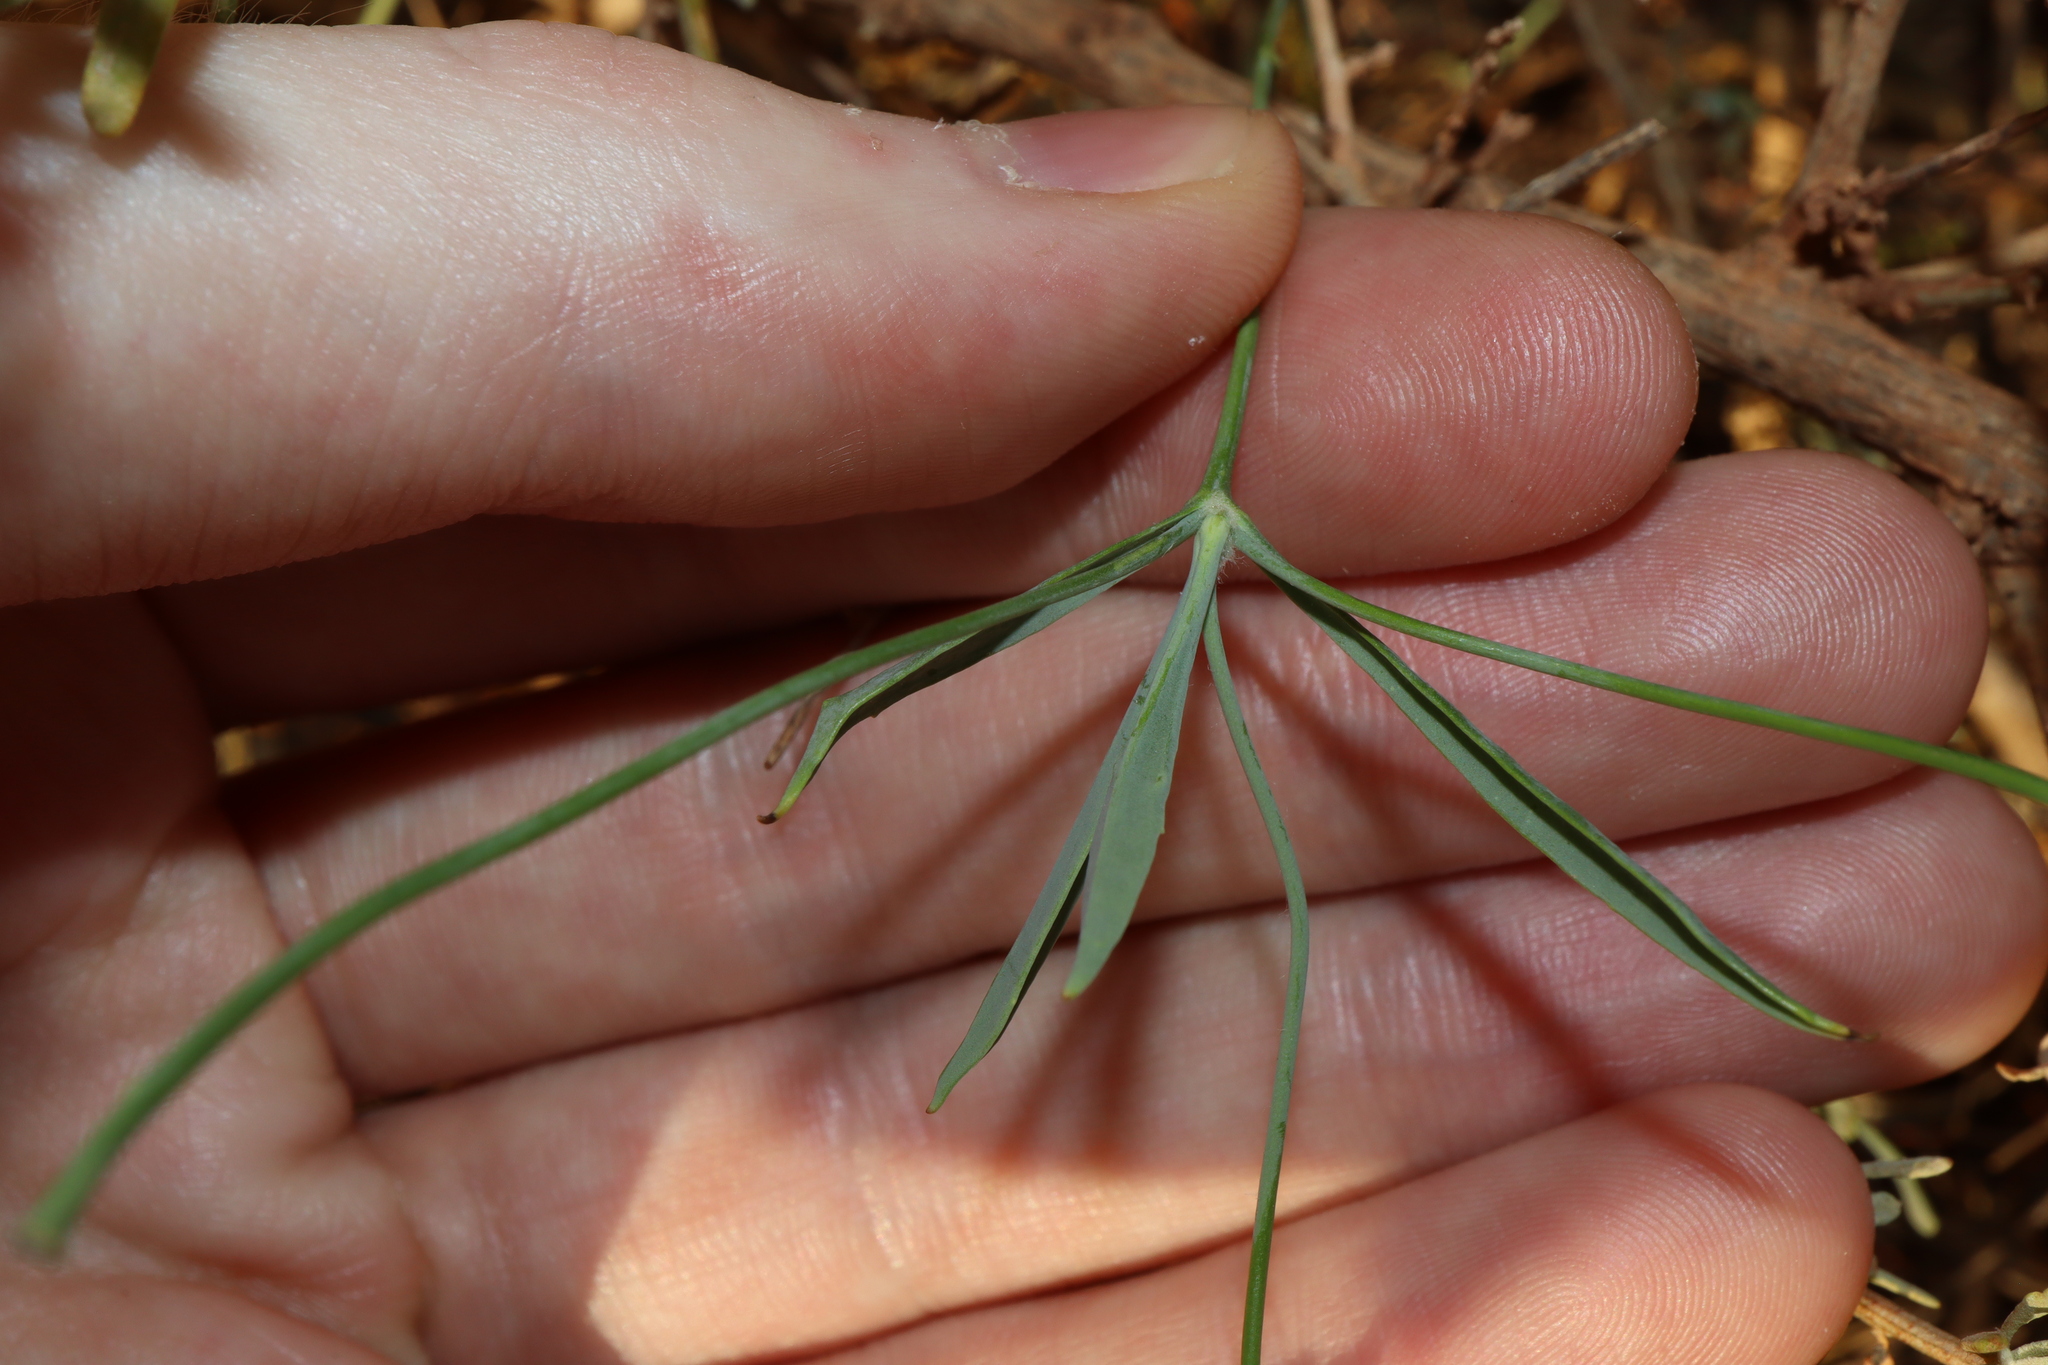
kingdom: Plantae
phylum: Tracheophyta
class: Magnoliopsida
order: Asterales
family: Goodeniaceae
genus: Goodenia
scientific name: Goodenia glauca
